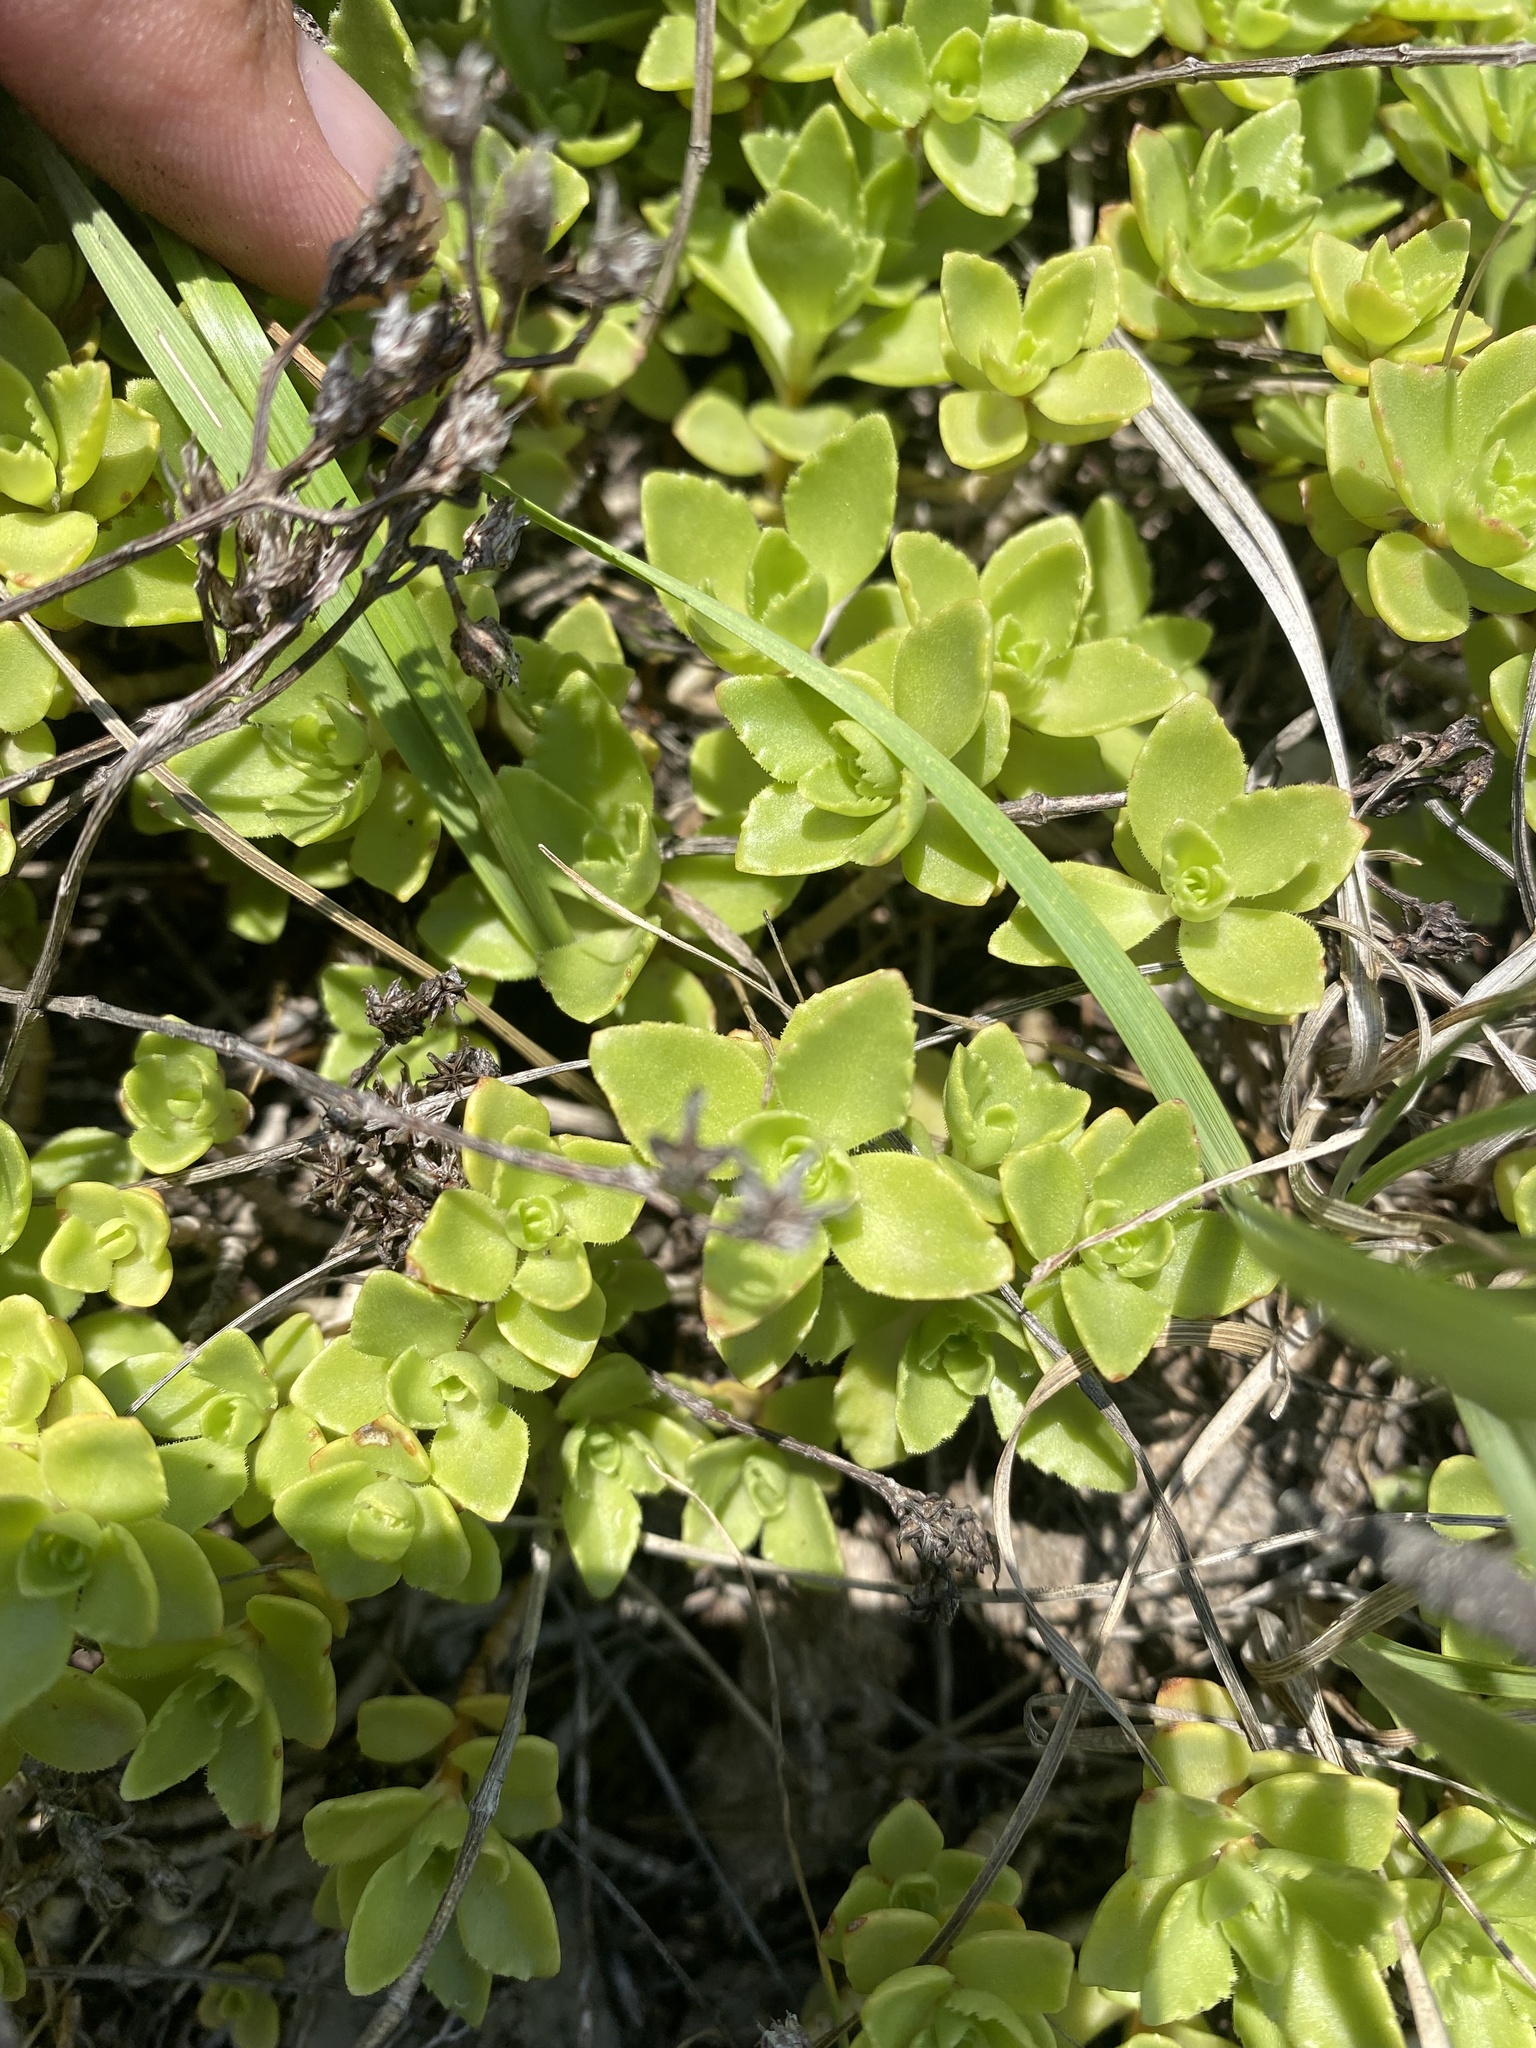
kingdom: Plantae
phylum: Tracheophyta
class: Magnoliopsida
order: Saxifragales
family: Crassulaceae
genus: Phedimus
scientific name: Phedimus spurius
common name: Caucasian stonecrop
